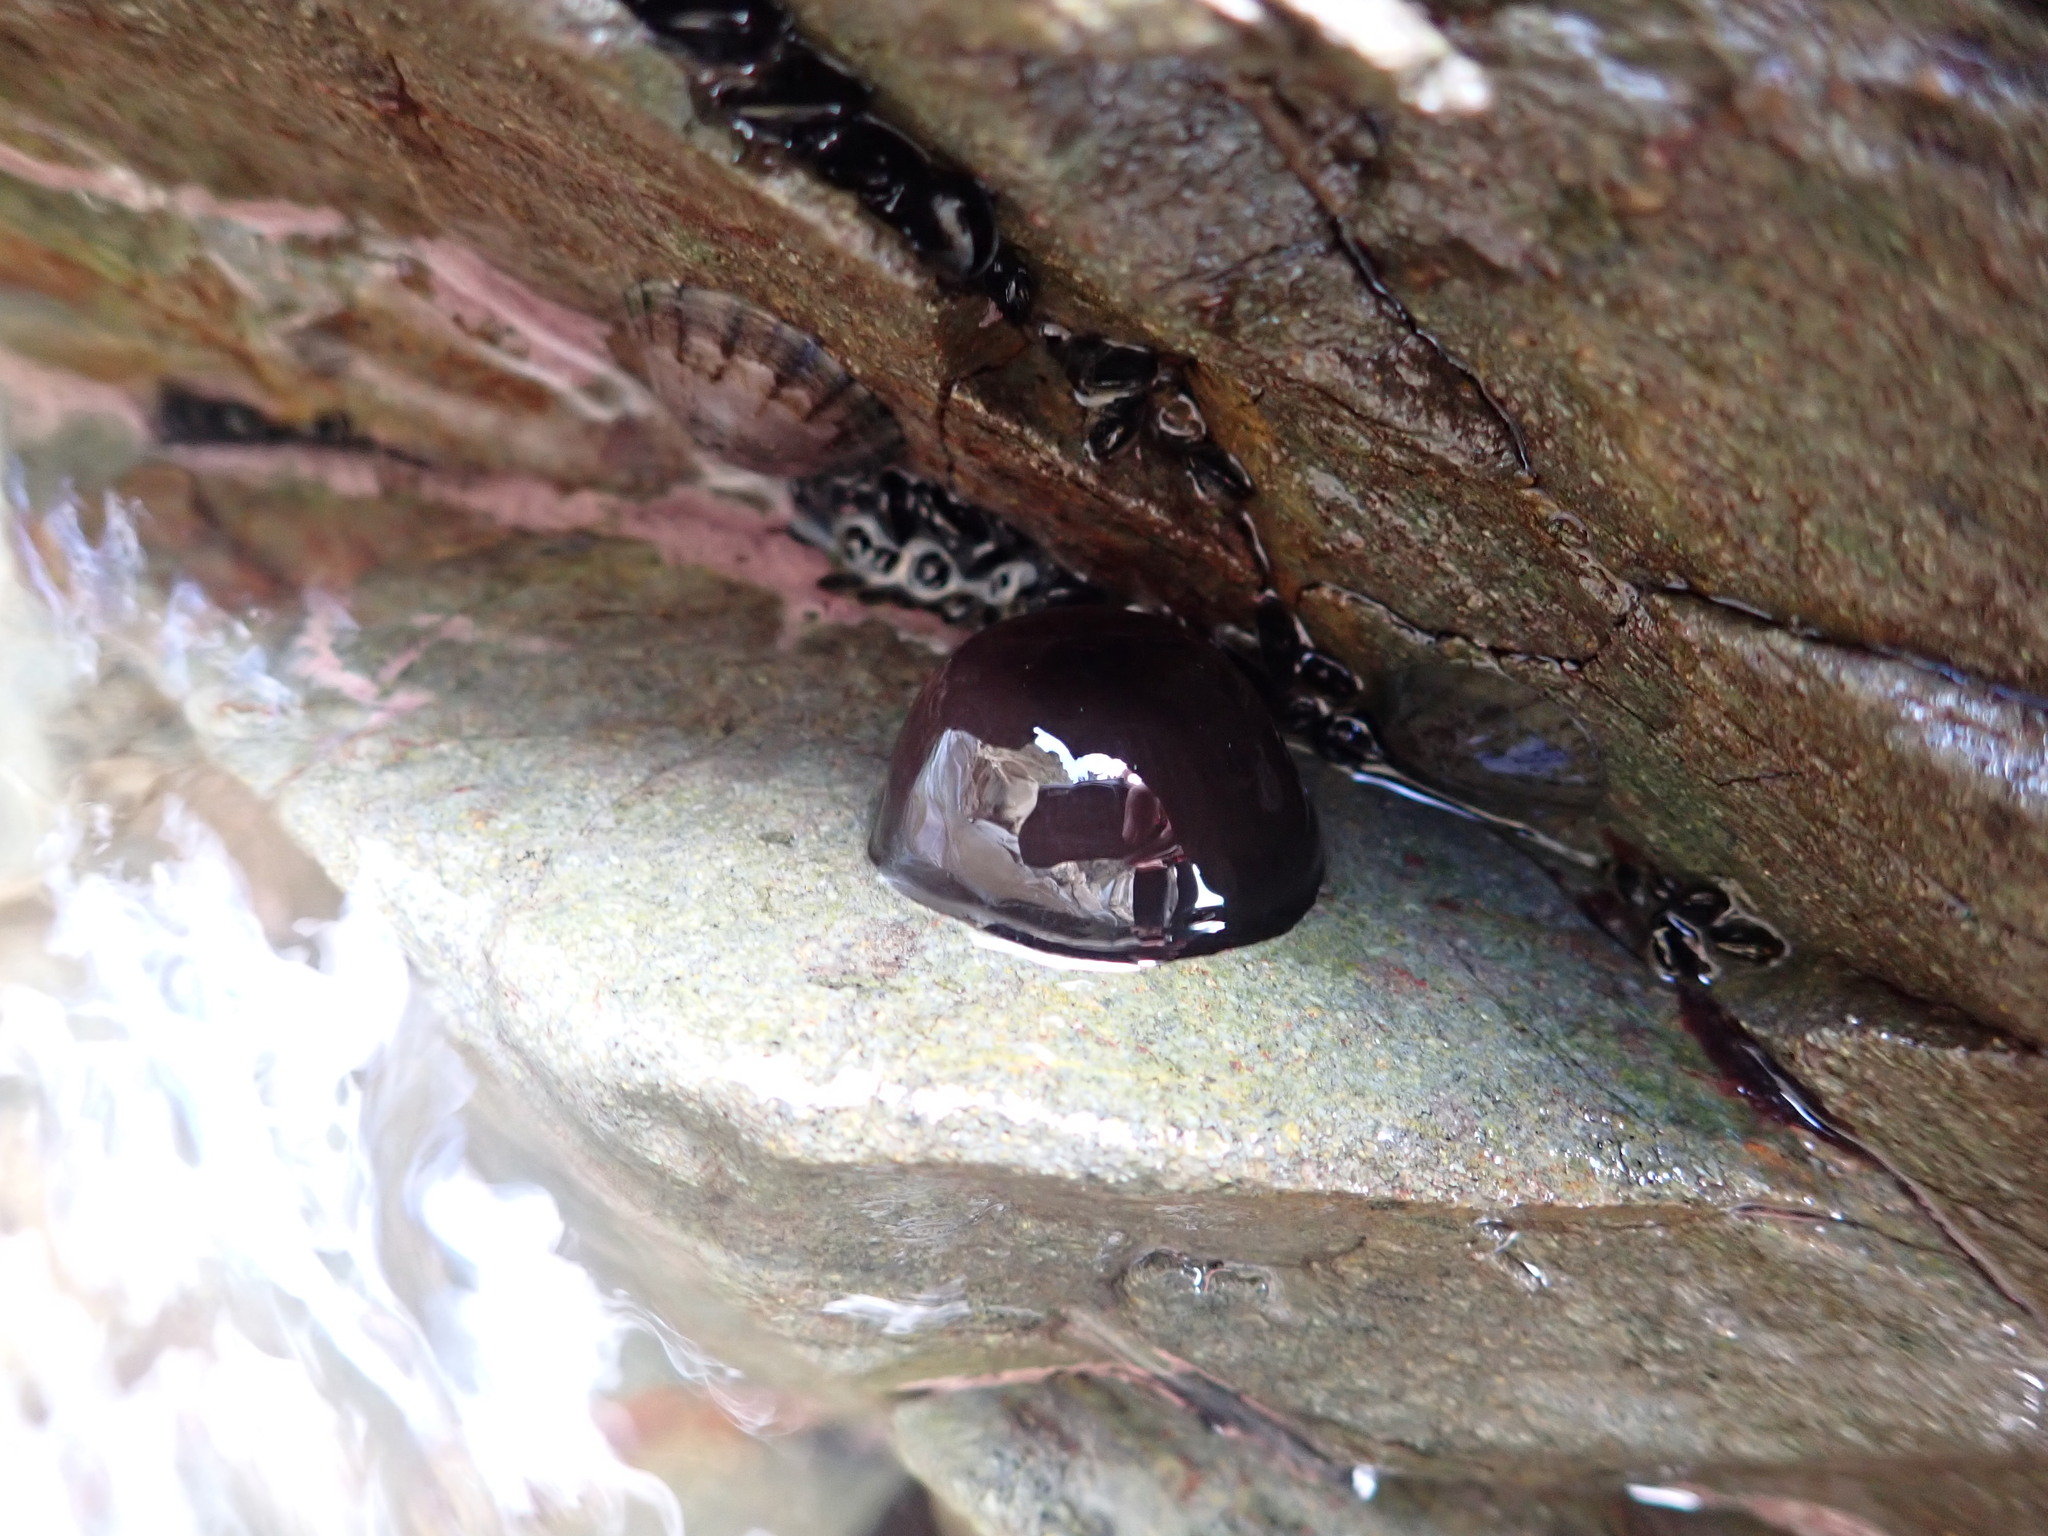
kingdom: Animalia
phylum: Cnidaria
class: Anthozoa
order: Actiniaria
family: Actiniidae
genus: Actinia
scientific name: Actinia tenebrosa
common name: Waratah anemone
